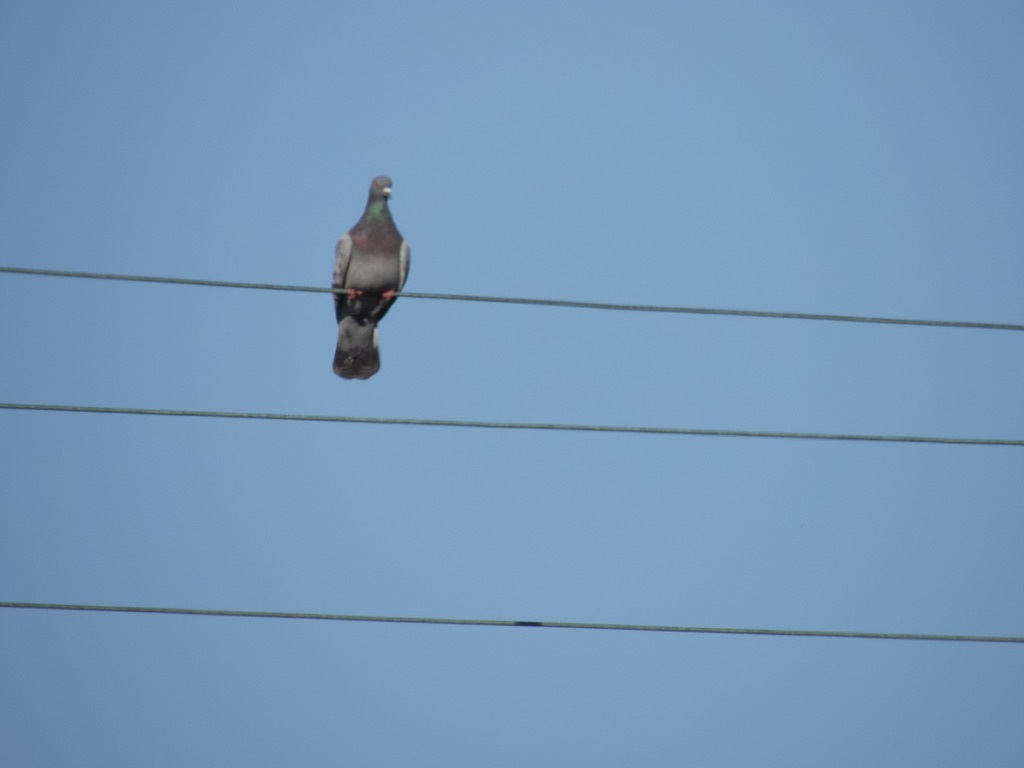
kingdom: Animalia
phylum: Chordata
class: Aves
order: Columbiformes
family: Columbidae
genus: Columba
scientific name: Columba livia
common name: Rock pigeon
